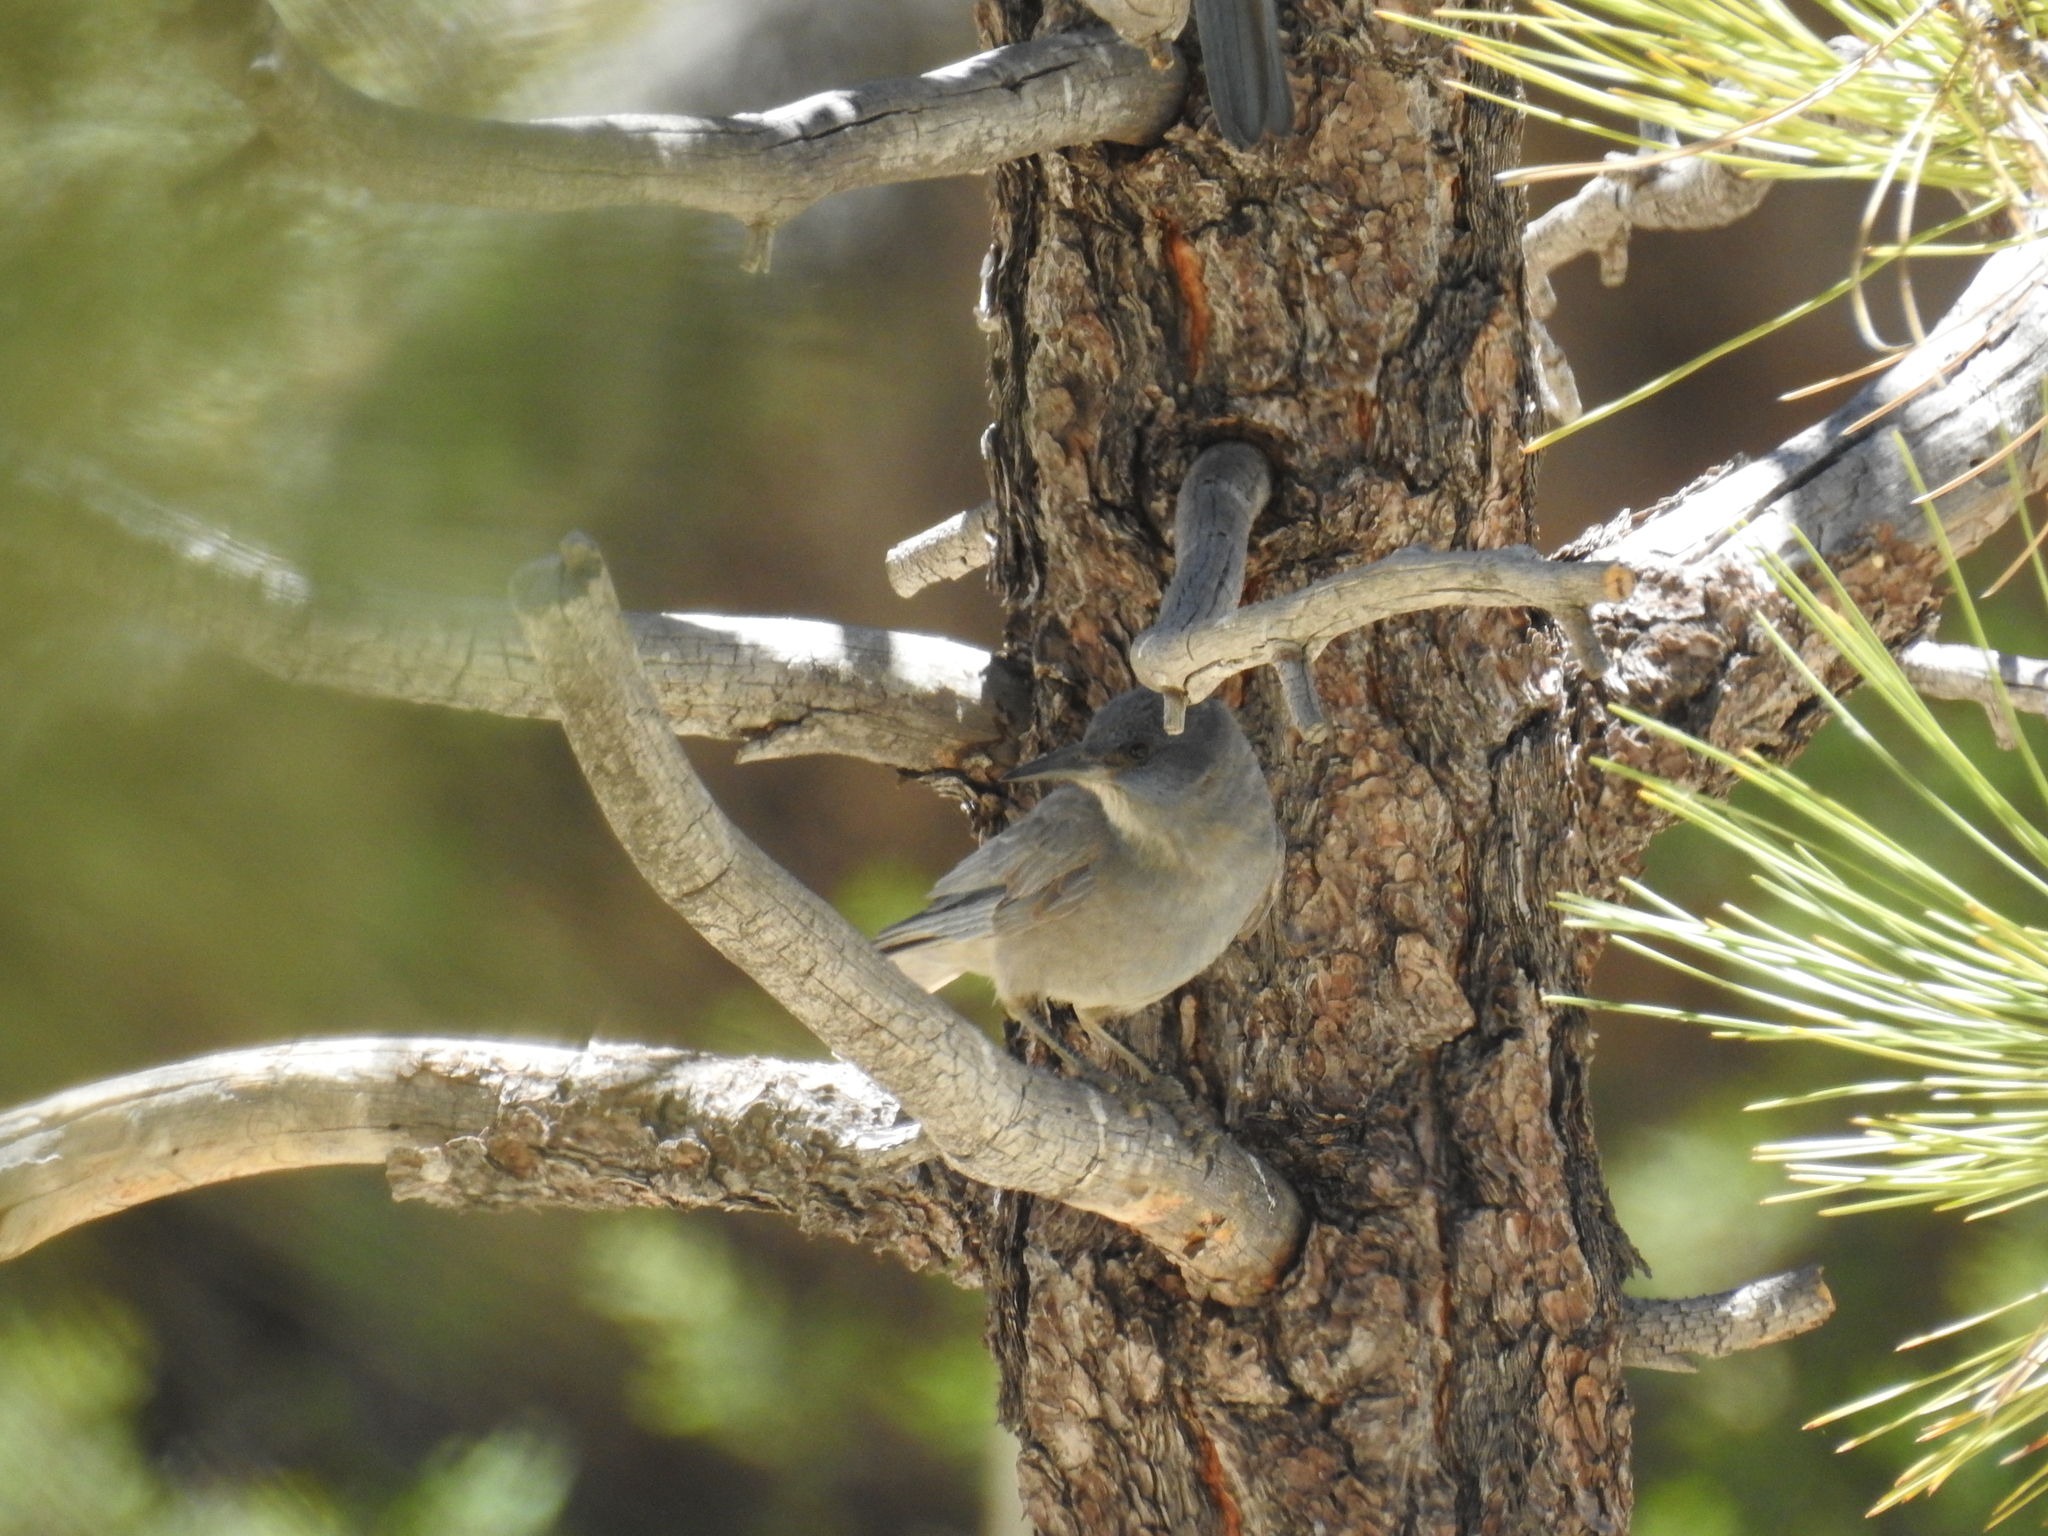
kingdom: Animalia
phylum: Chordata
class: Aves
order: Passeriformes
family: Corvidae
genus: Gymnorhinus
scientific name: Gymnorhinus cyanocephalus
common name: Pinyon jay
